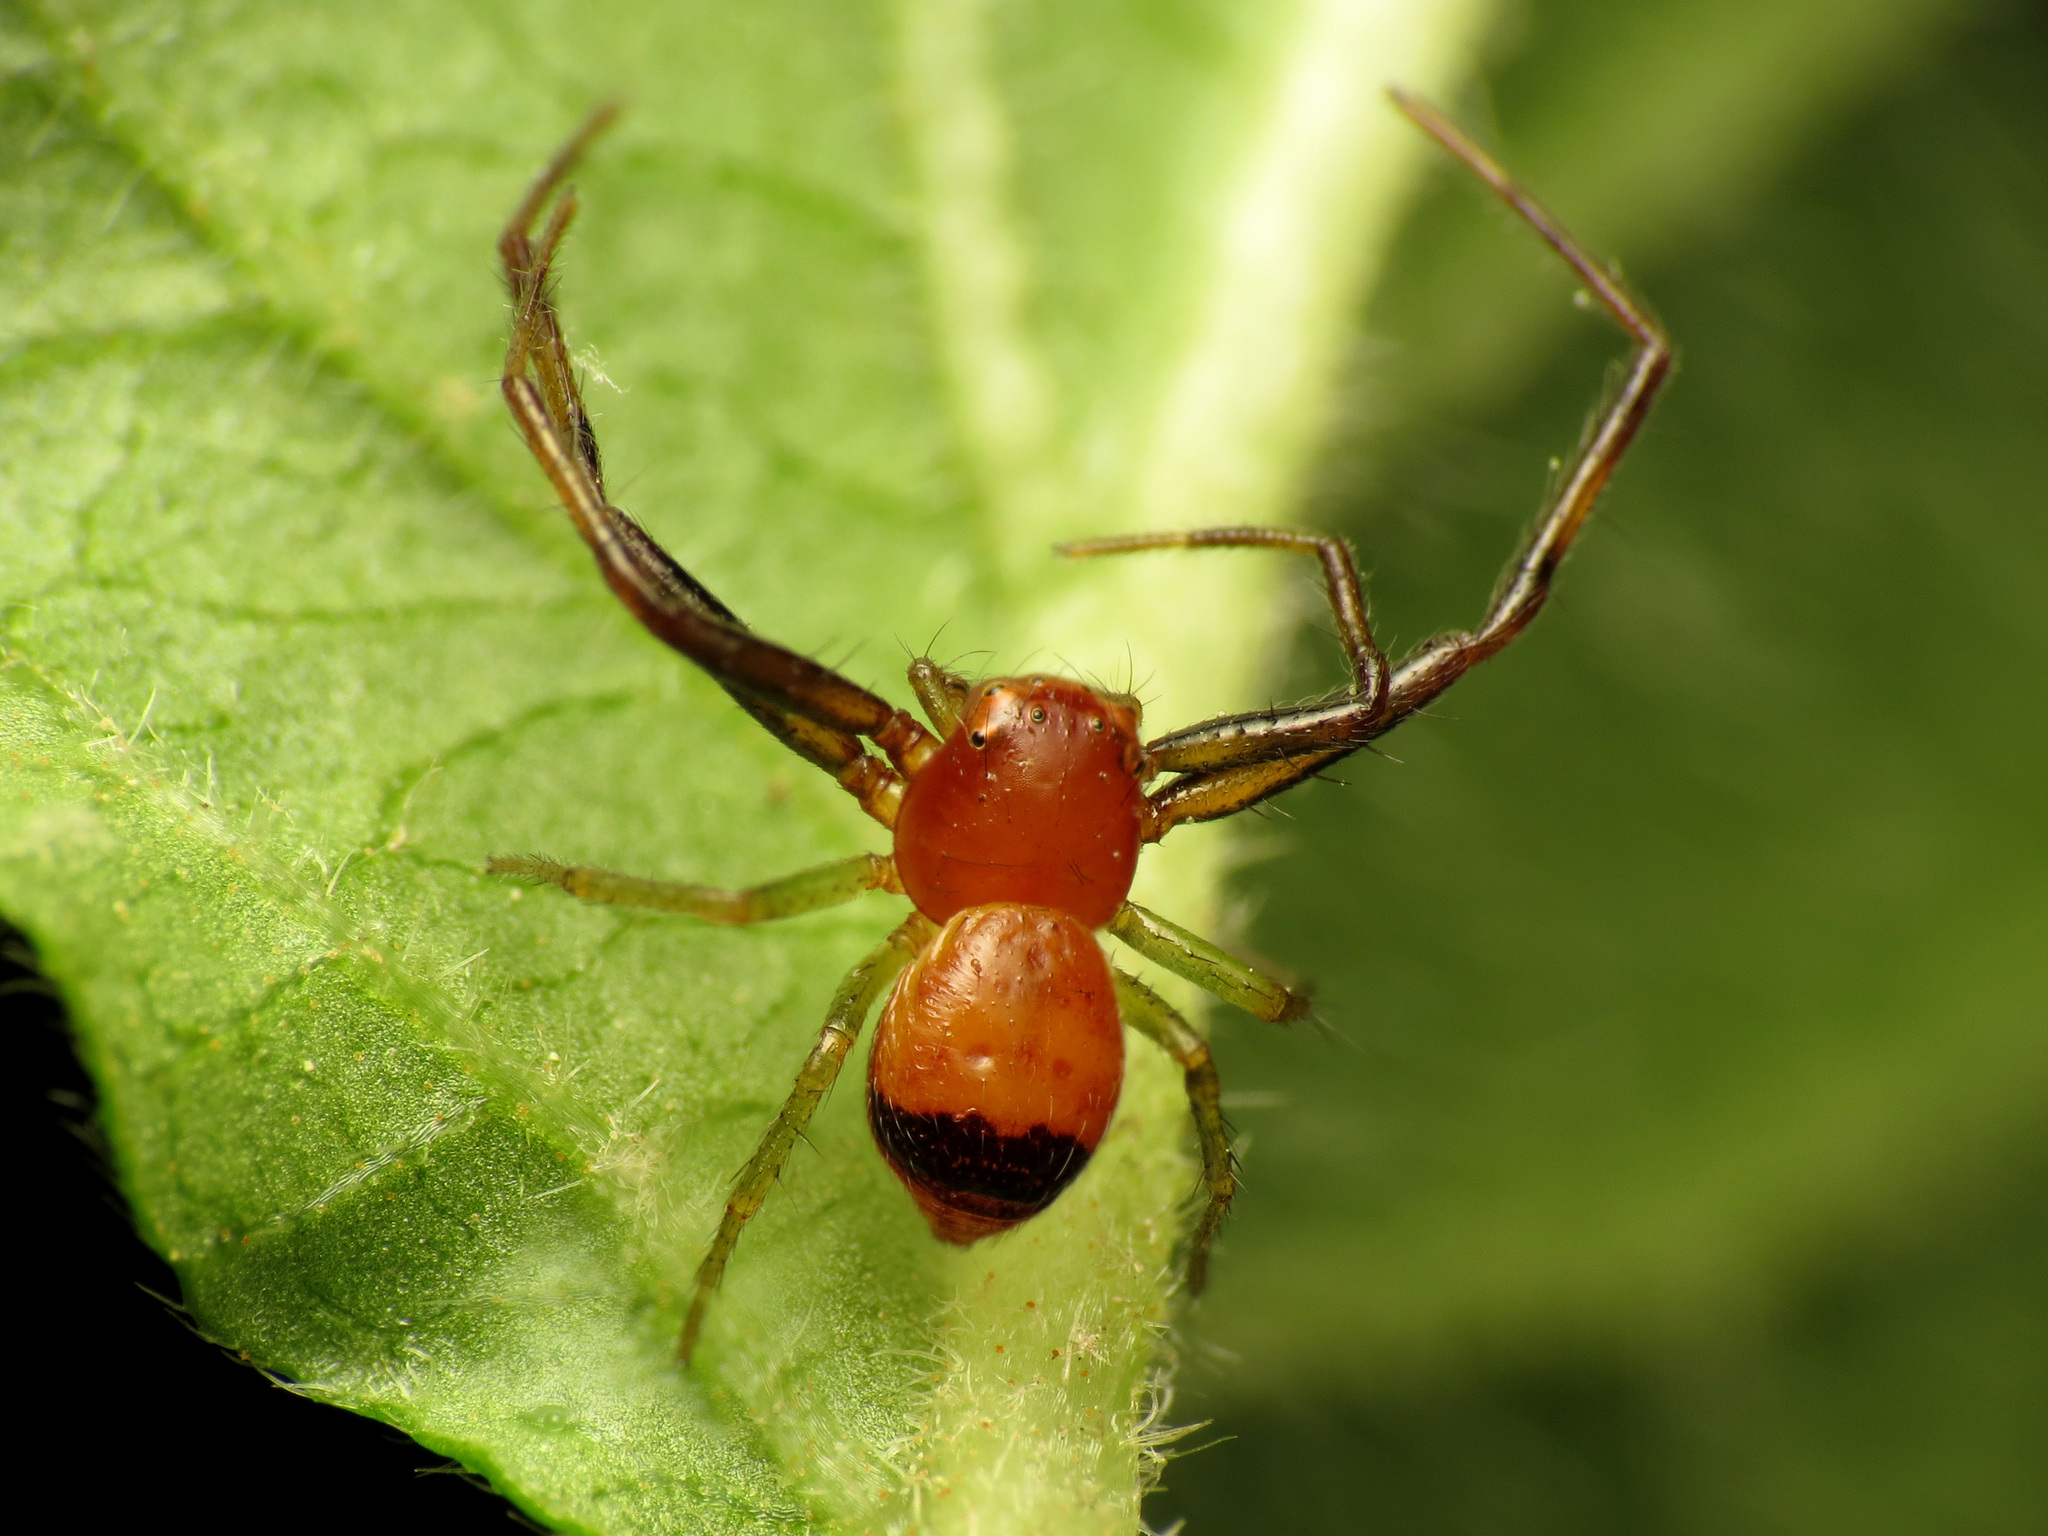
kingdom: Animalia
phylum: Arthropoda
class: Arachnida
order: Araneae
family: Thomisidae
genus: Synema
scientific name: Synema parvulum
